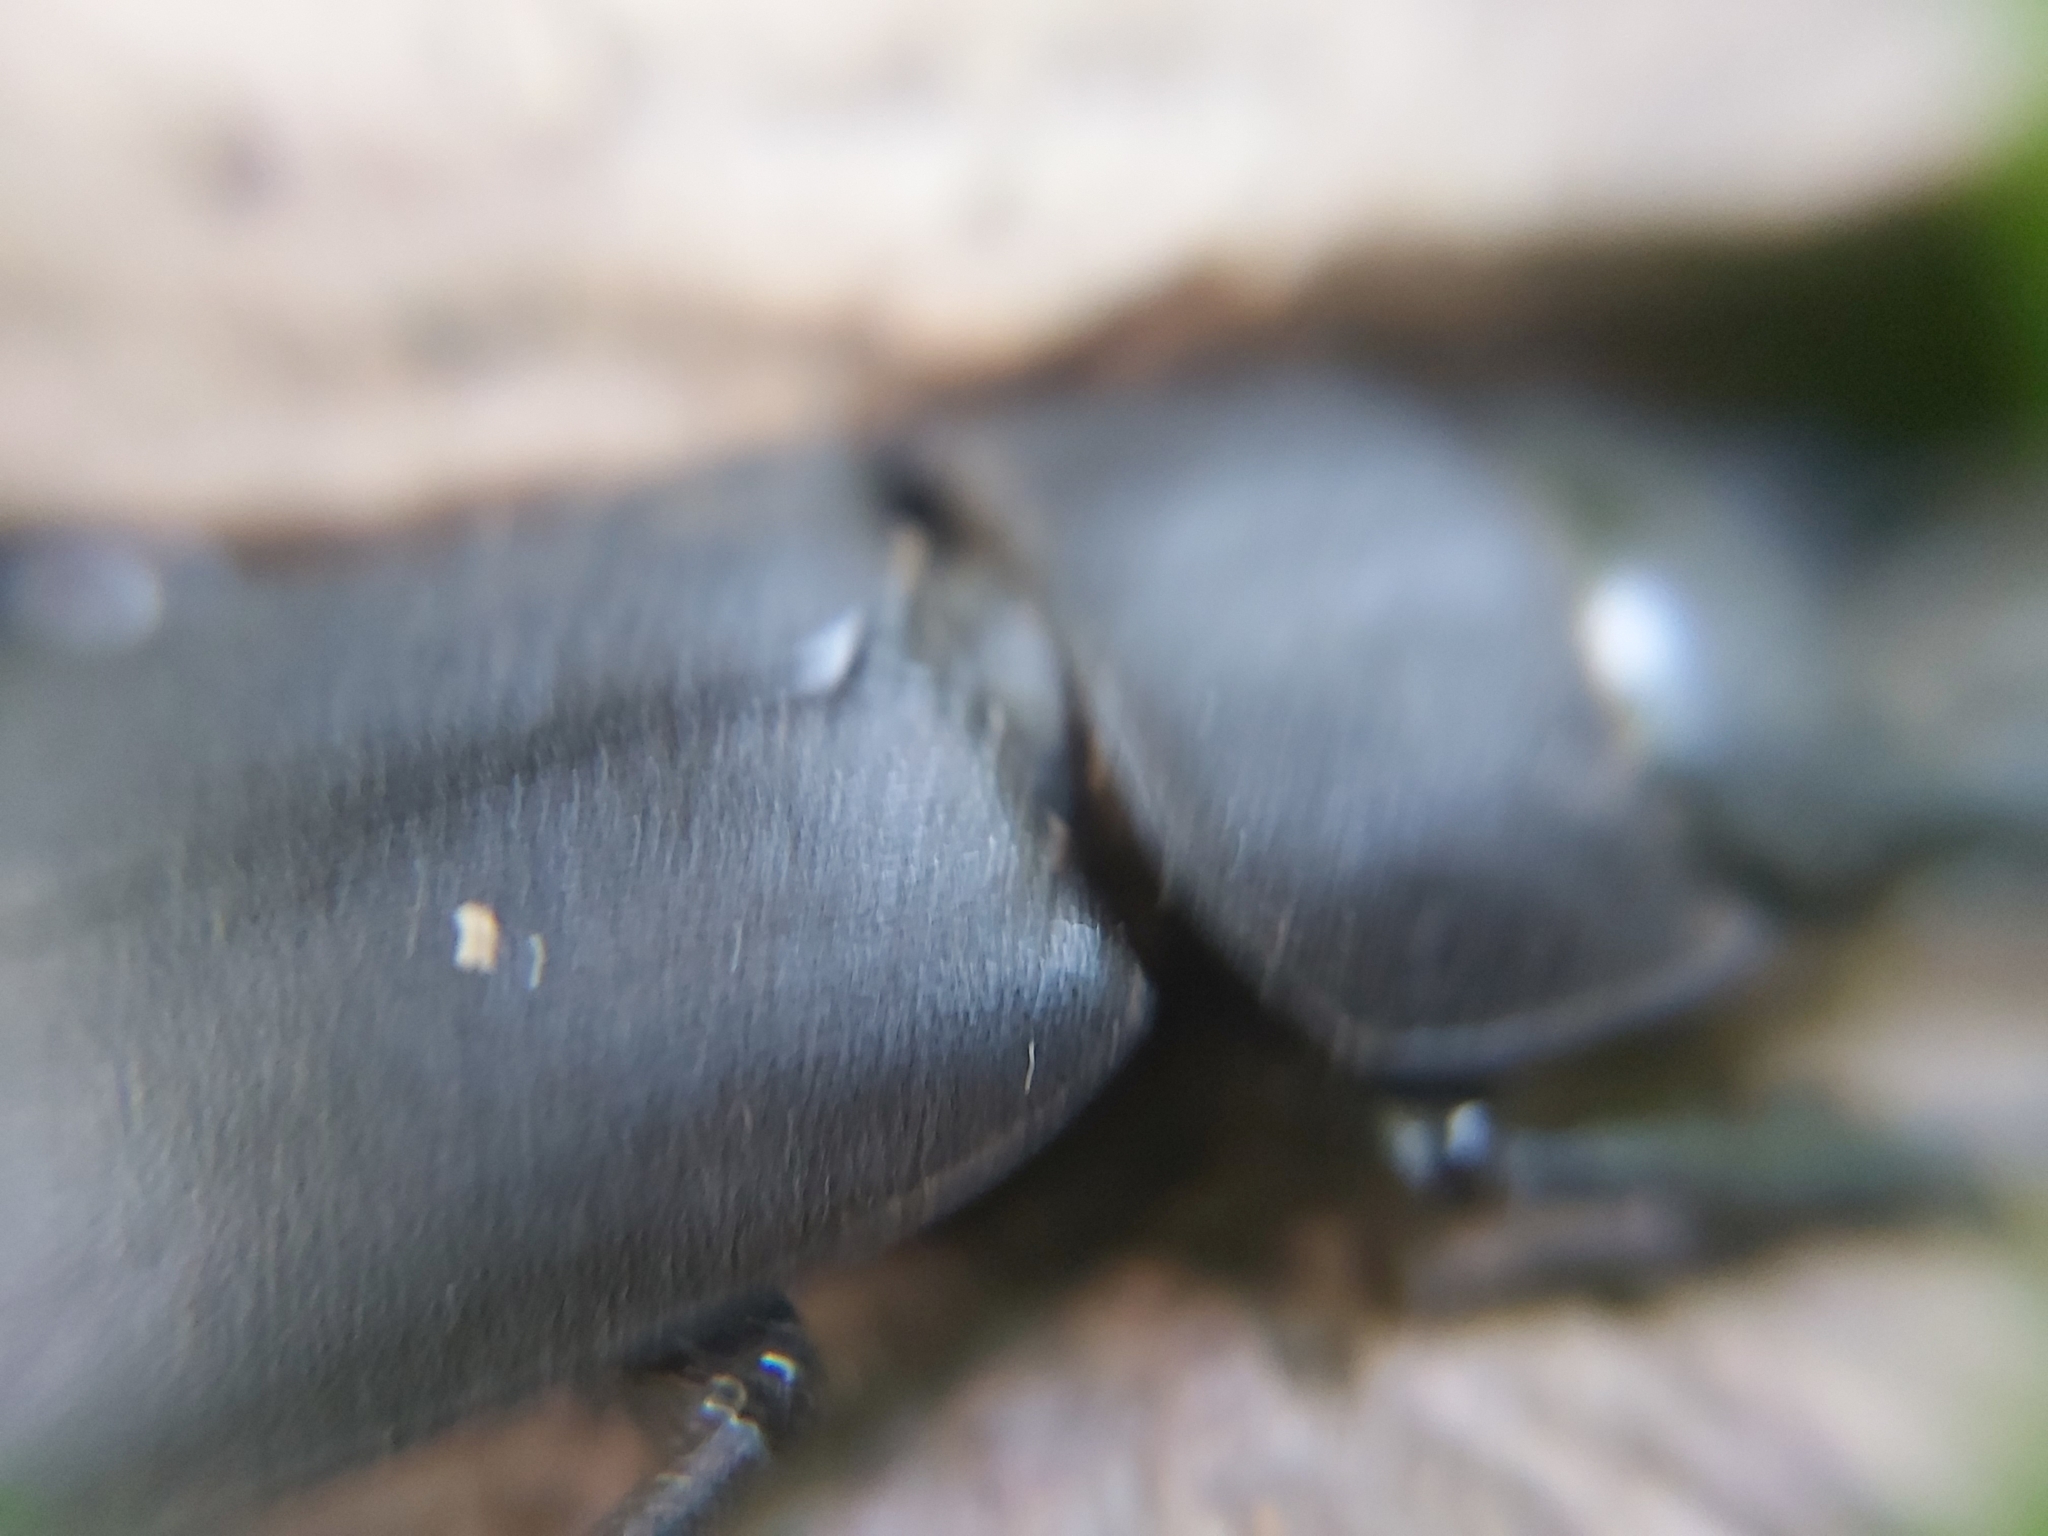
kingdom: Animalia
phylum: Arthropoda
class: Insecta
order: Coleoptera
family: Lucanidae
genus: Dorcus
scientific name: Dorcus parallelipipedus
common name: Lesser stag beetle
